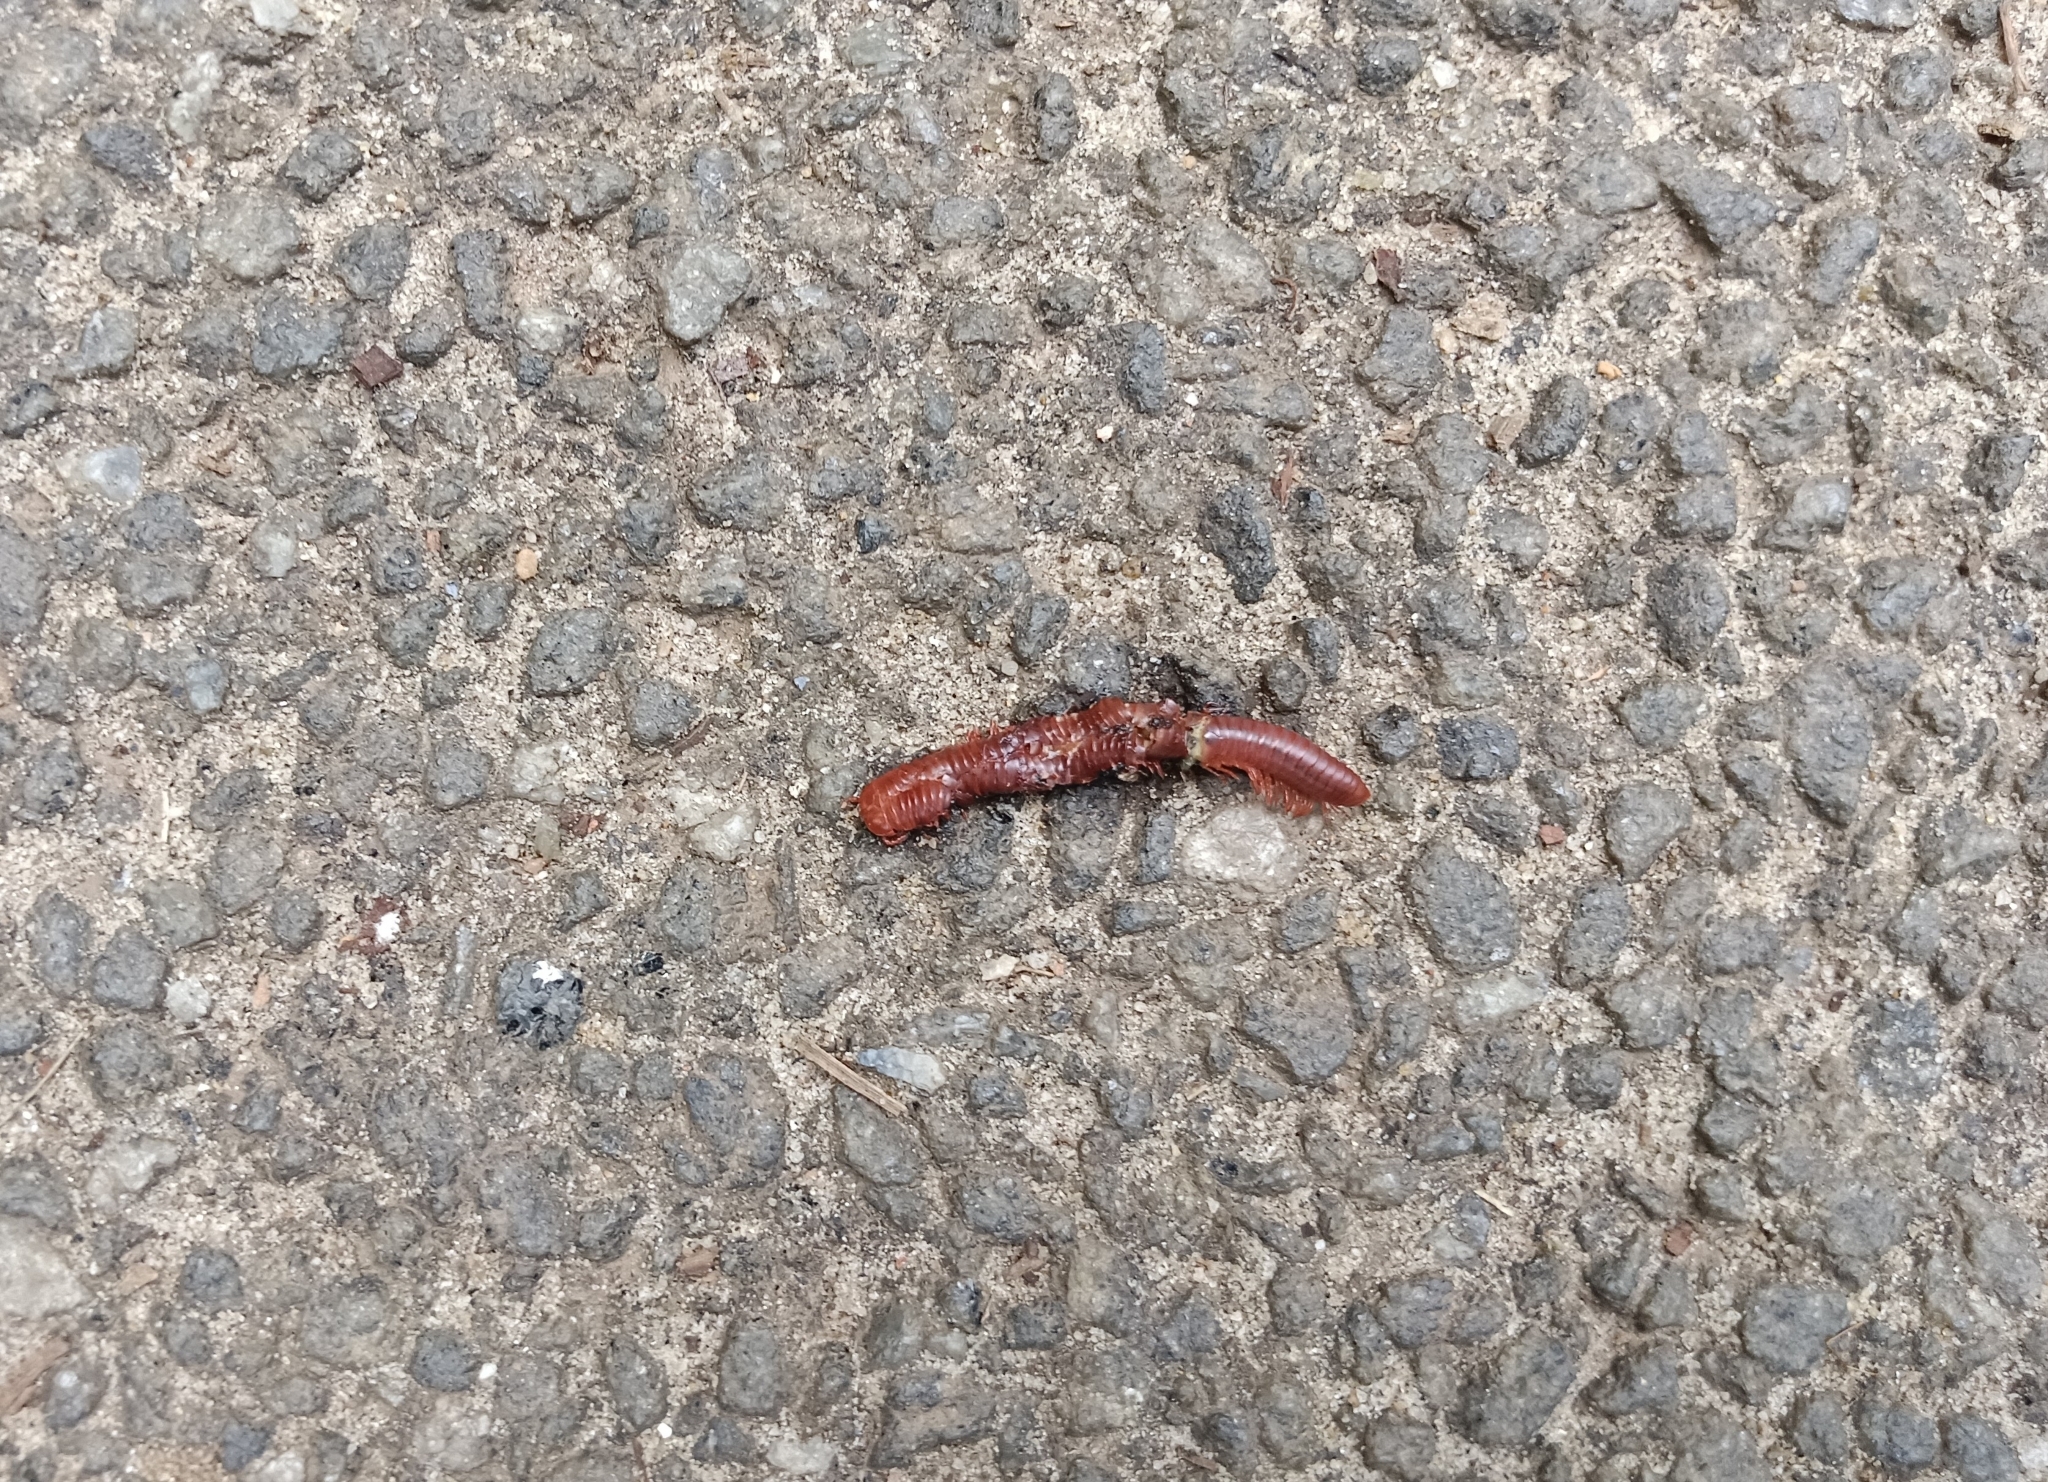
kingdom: Animalia
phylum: Arthropoda
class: Diplopoda
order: Spirobolida
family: Pachybolidae
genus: Trigoniulus
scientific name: Trigoniulus corallinus
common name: Millipede
